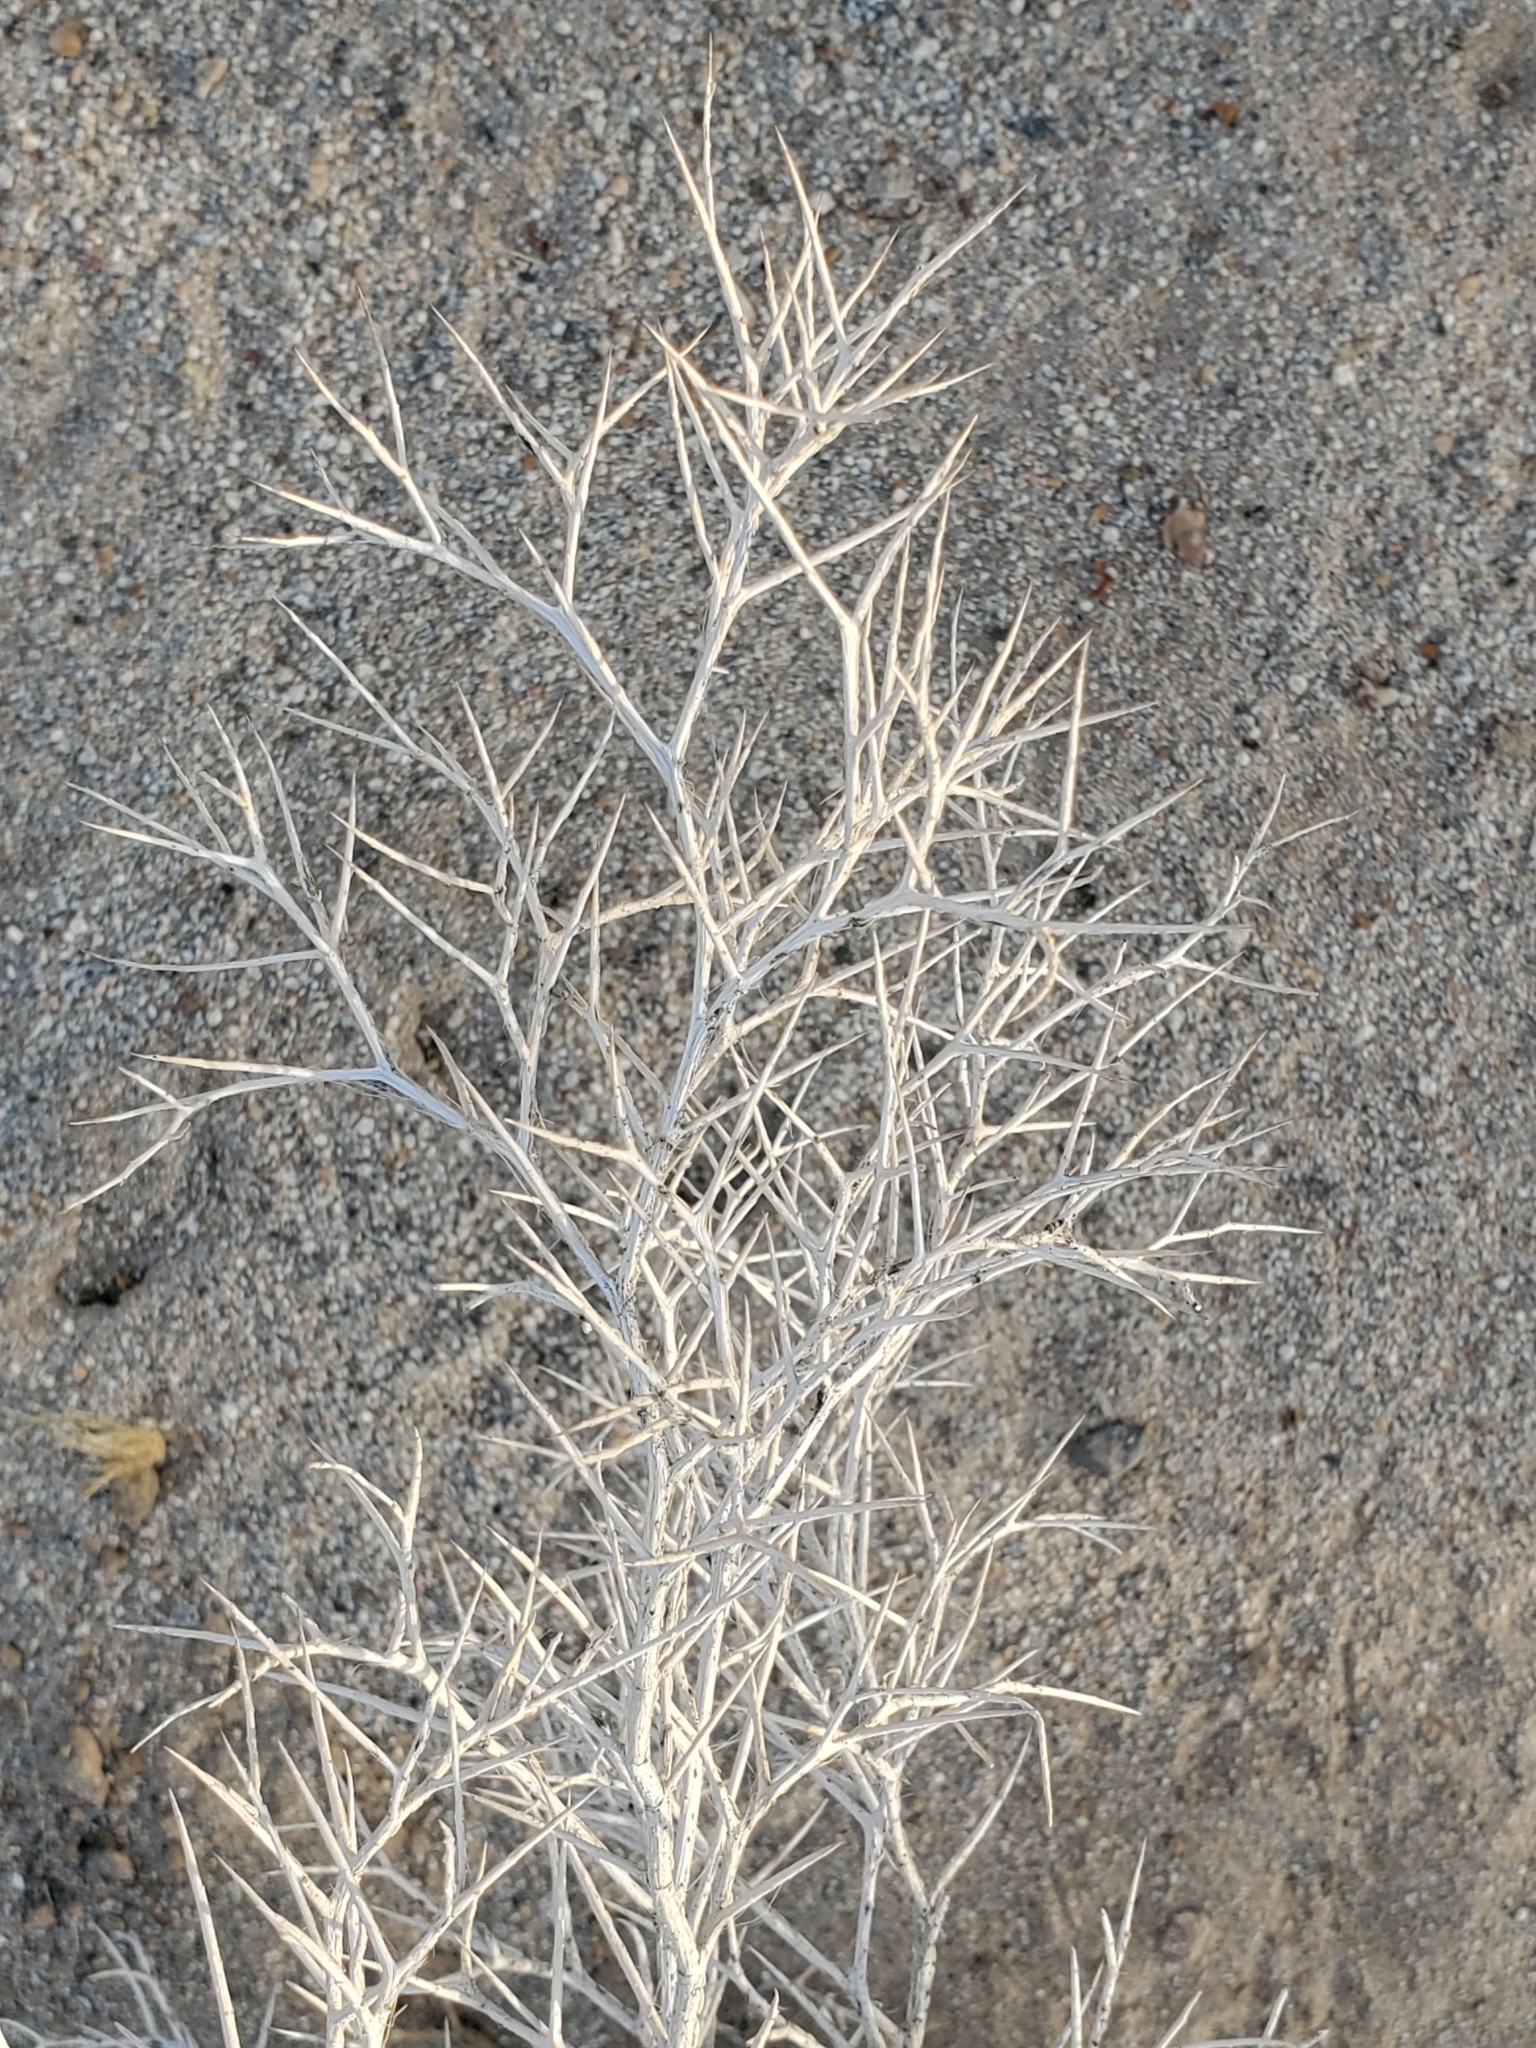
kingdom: Plantae
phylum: Tracheophyta
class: Magnoliopsida
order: Fabales
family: Fabaceae
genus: Psorothamnus
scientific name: Psorothamnus spinosus
